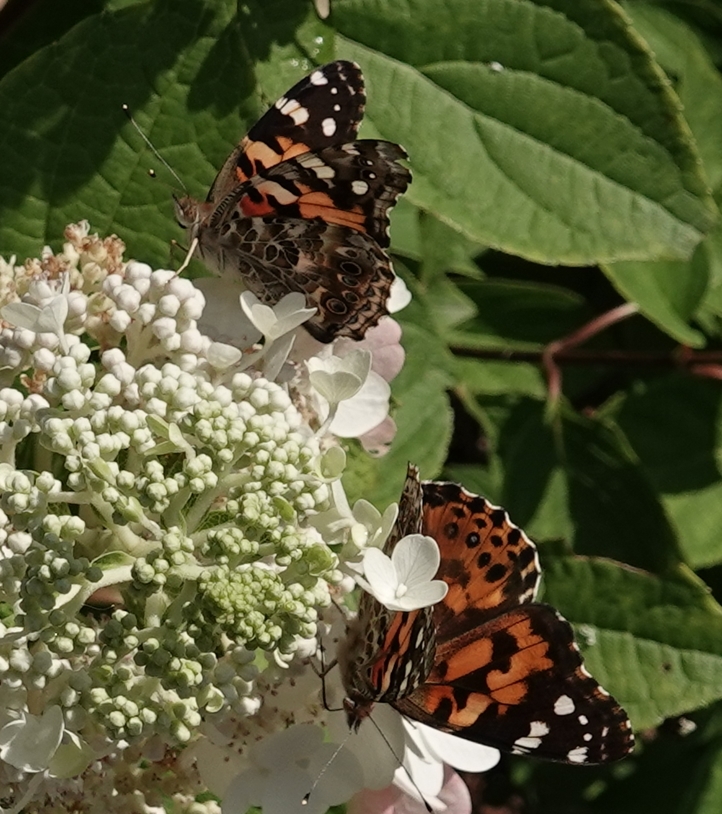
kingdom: Animalia
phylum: Arthropoda
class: Insecta
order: Lepidoptera
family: Nymphalidae
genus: Vanessa
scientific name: Vanessa cardui
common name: Painted lady
